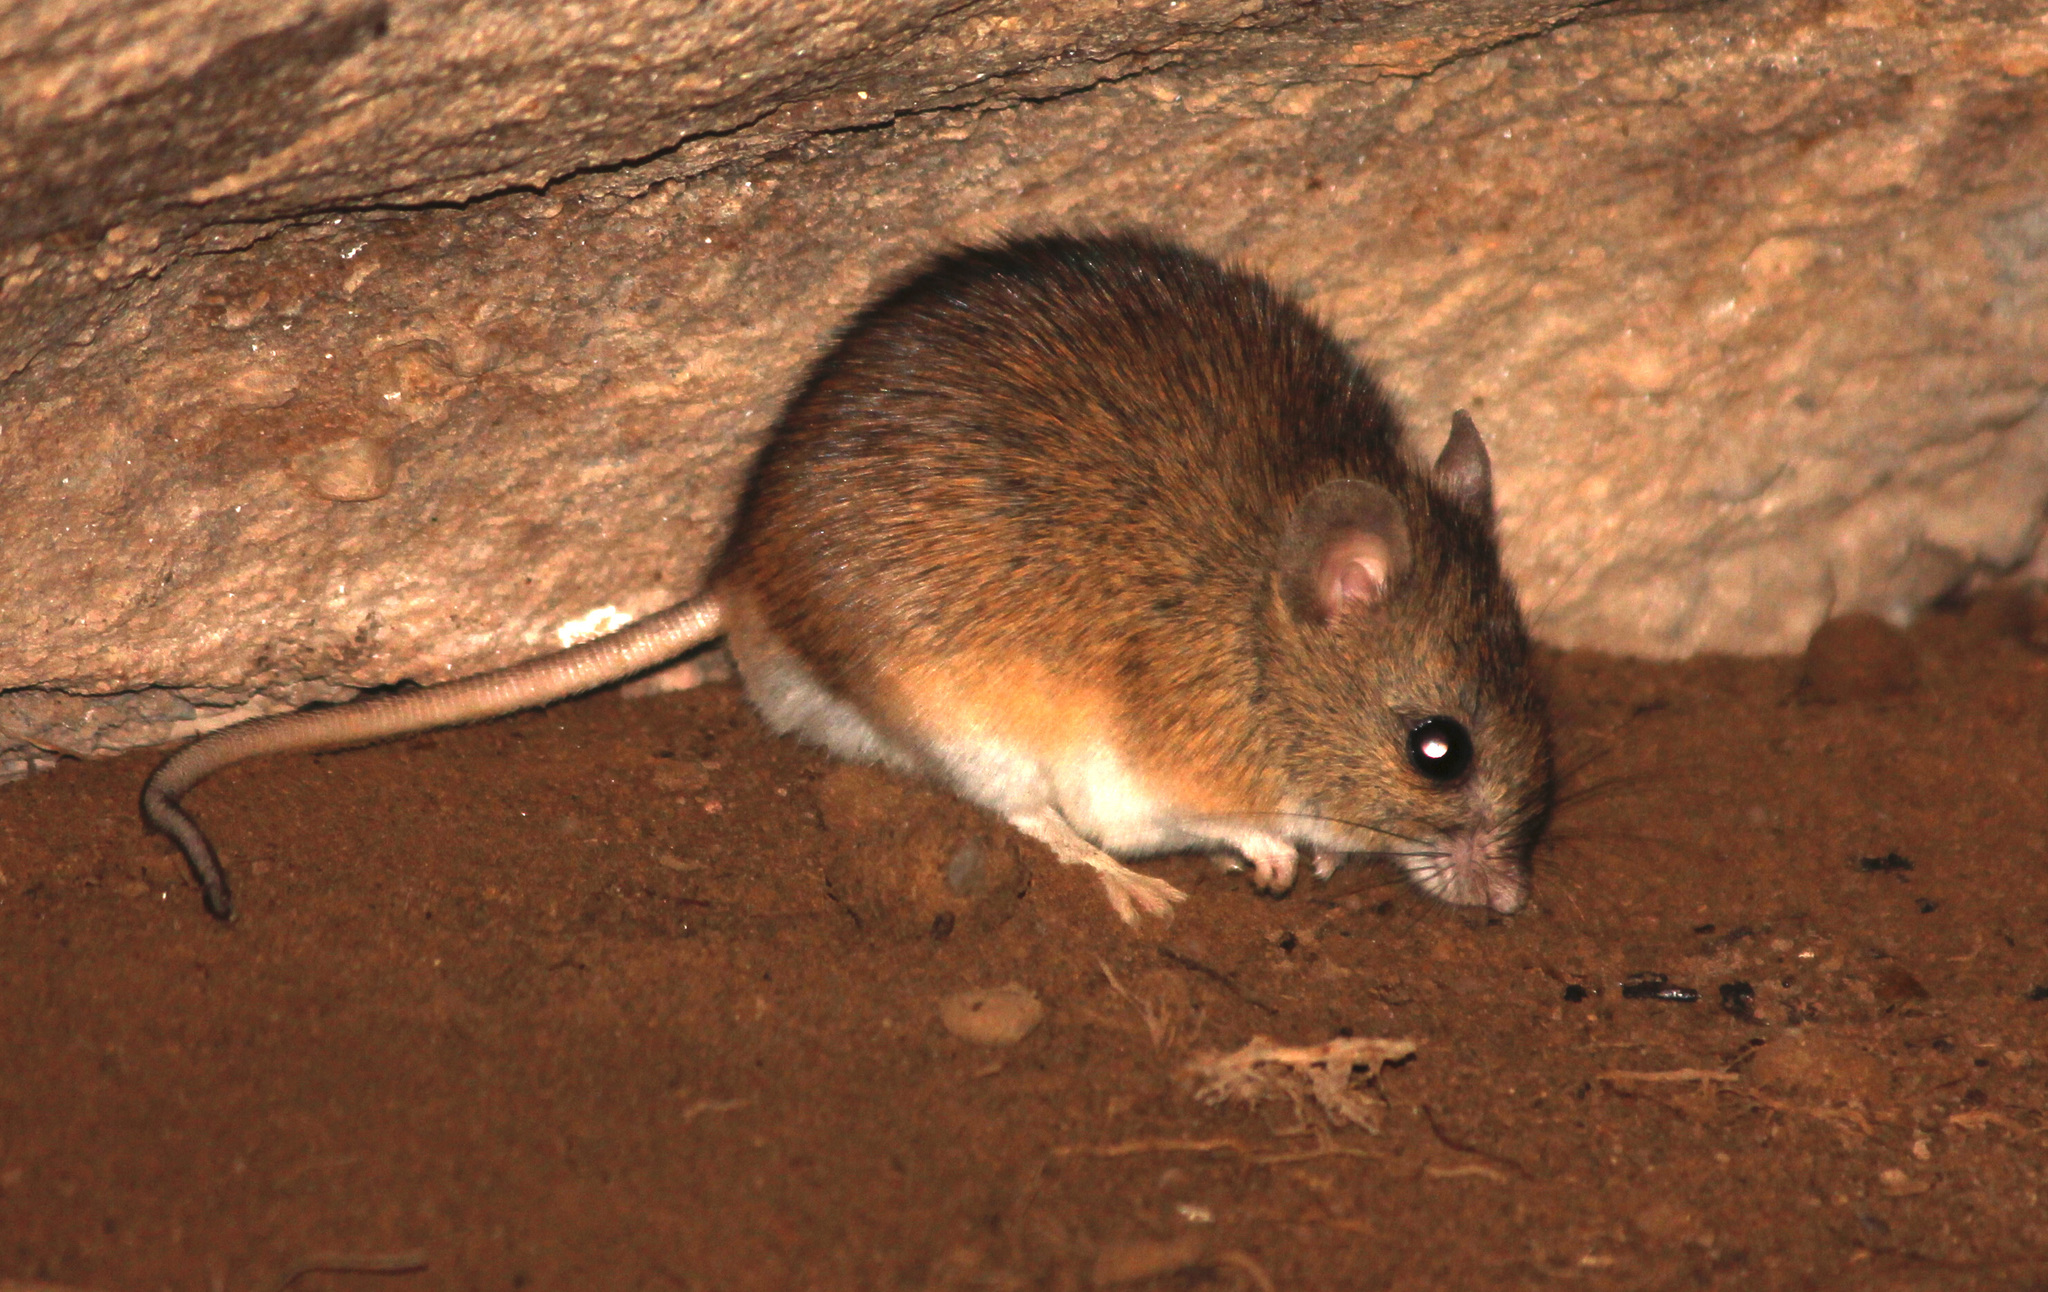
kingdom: Animalia
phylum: Chordata
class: Mammalia
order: Rodentia
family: Muridae
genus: Micaelamys
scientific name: Micaelamys namaquensis
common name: Namaqua micaelamys
